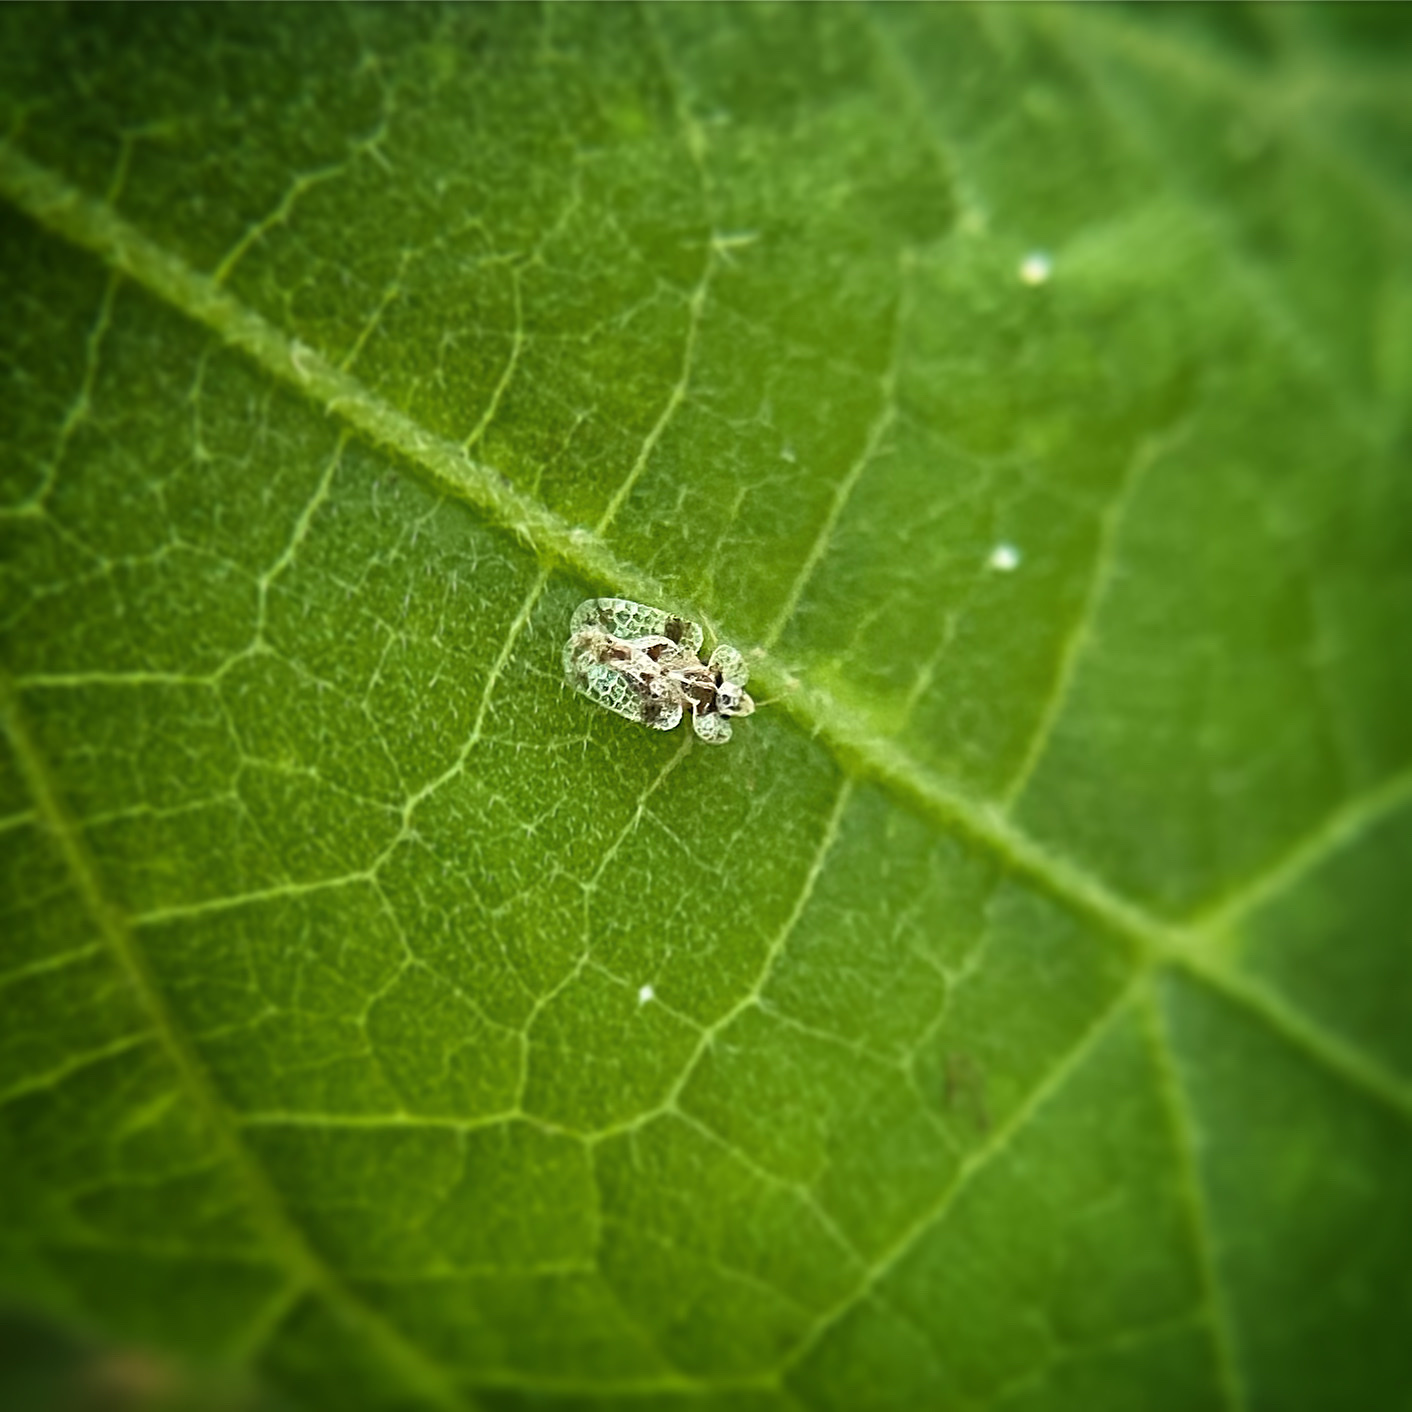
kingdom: Animalia
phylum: Arthropoda
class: Insecta
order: Hemiptera
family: Tingidae
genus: Corythucha
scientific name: Corythucha marmorata
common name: Chrysanthemum lace bug
